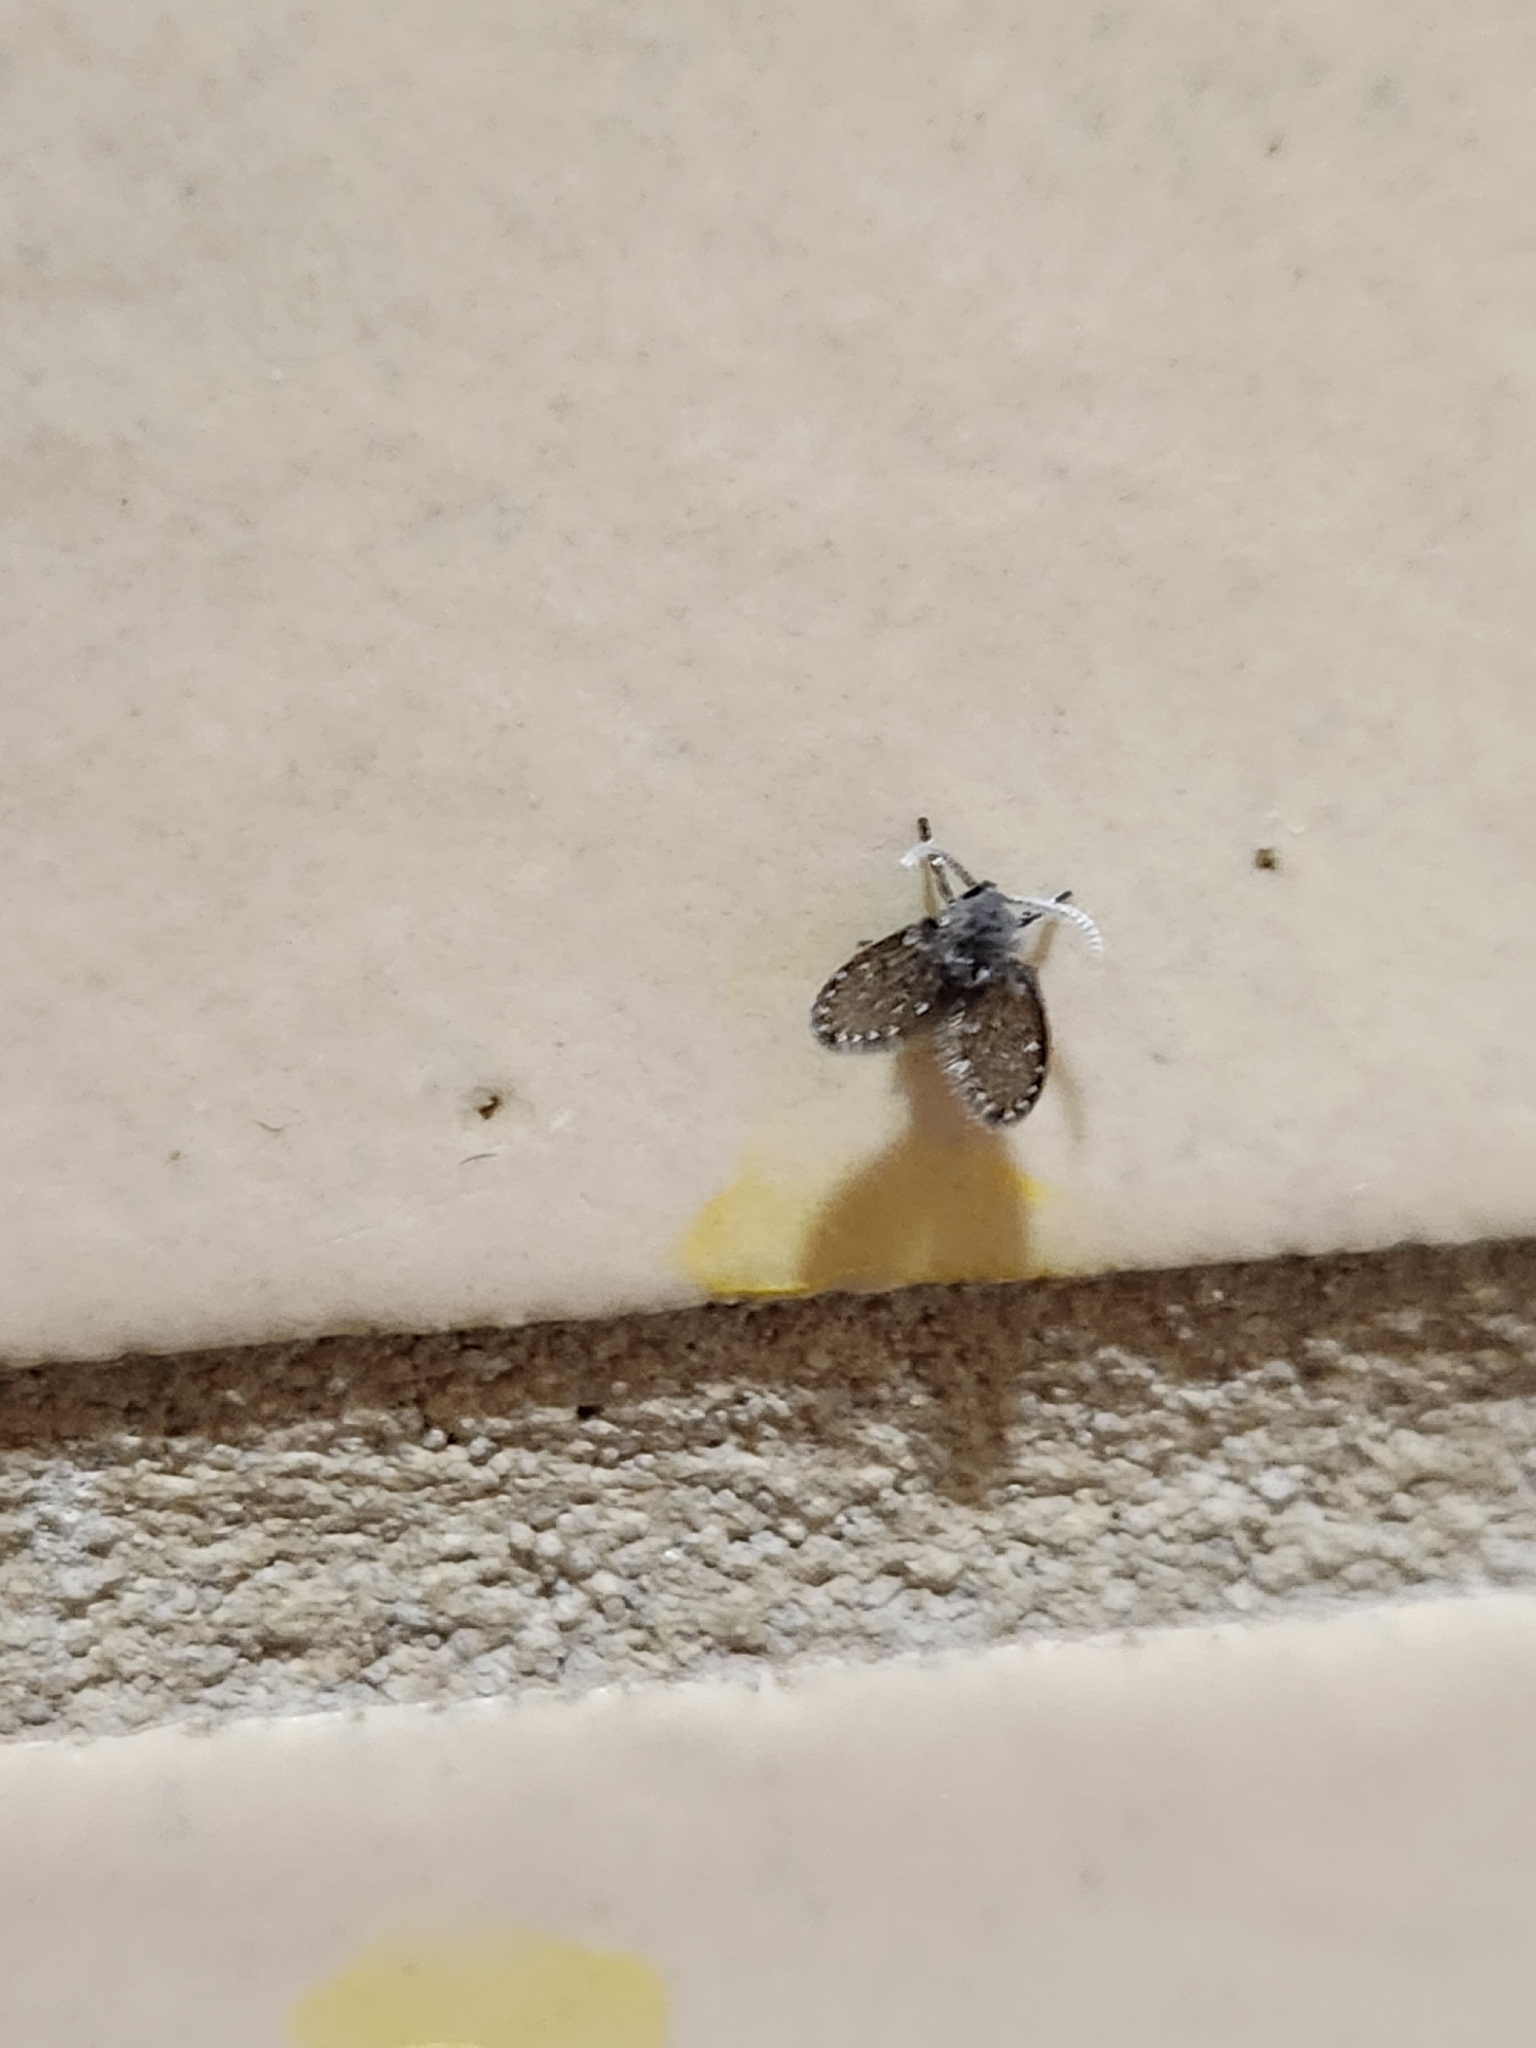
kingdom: Animalia
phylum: Arthropoda
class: Insecta
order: Diptera
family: Psychodidae
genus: Clogmia
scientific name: Clogmia albipunctatus
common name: White-spotted moth fly
